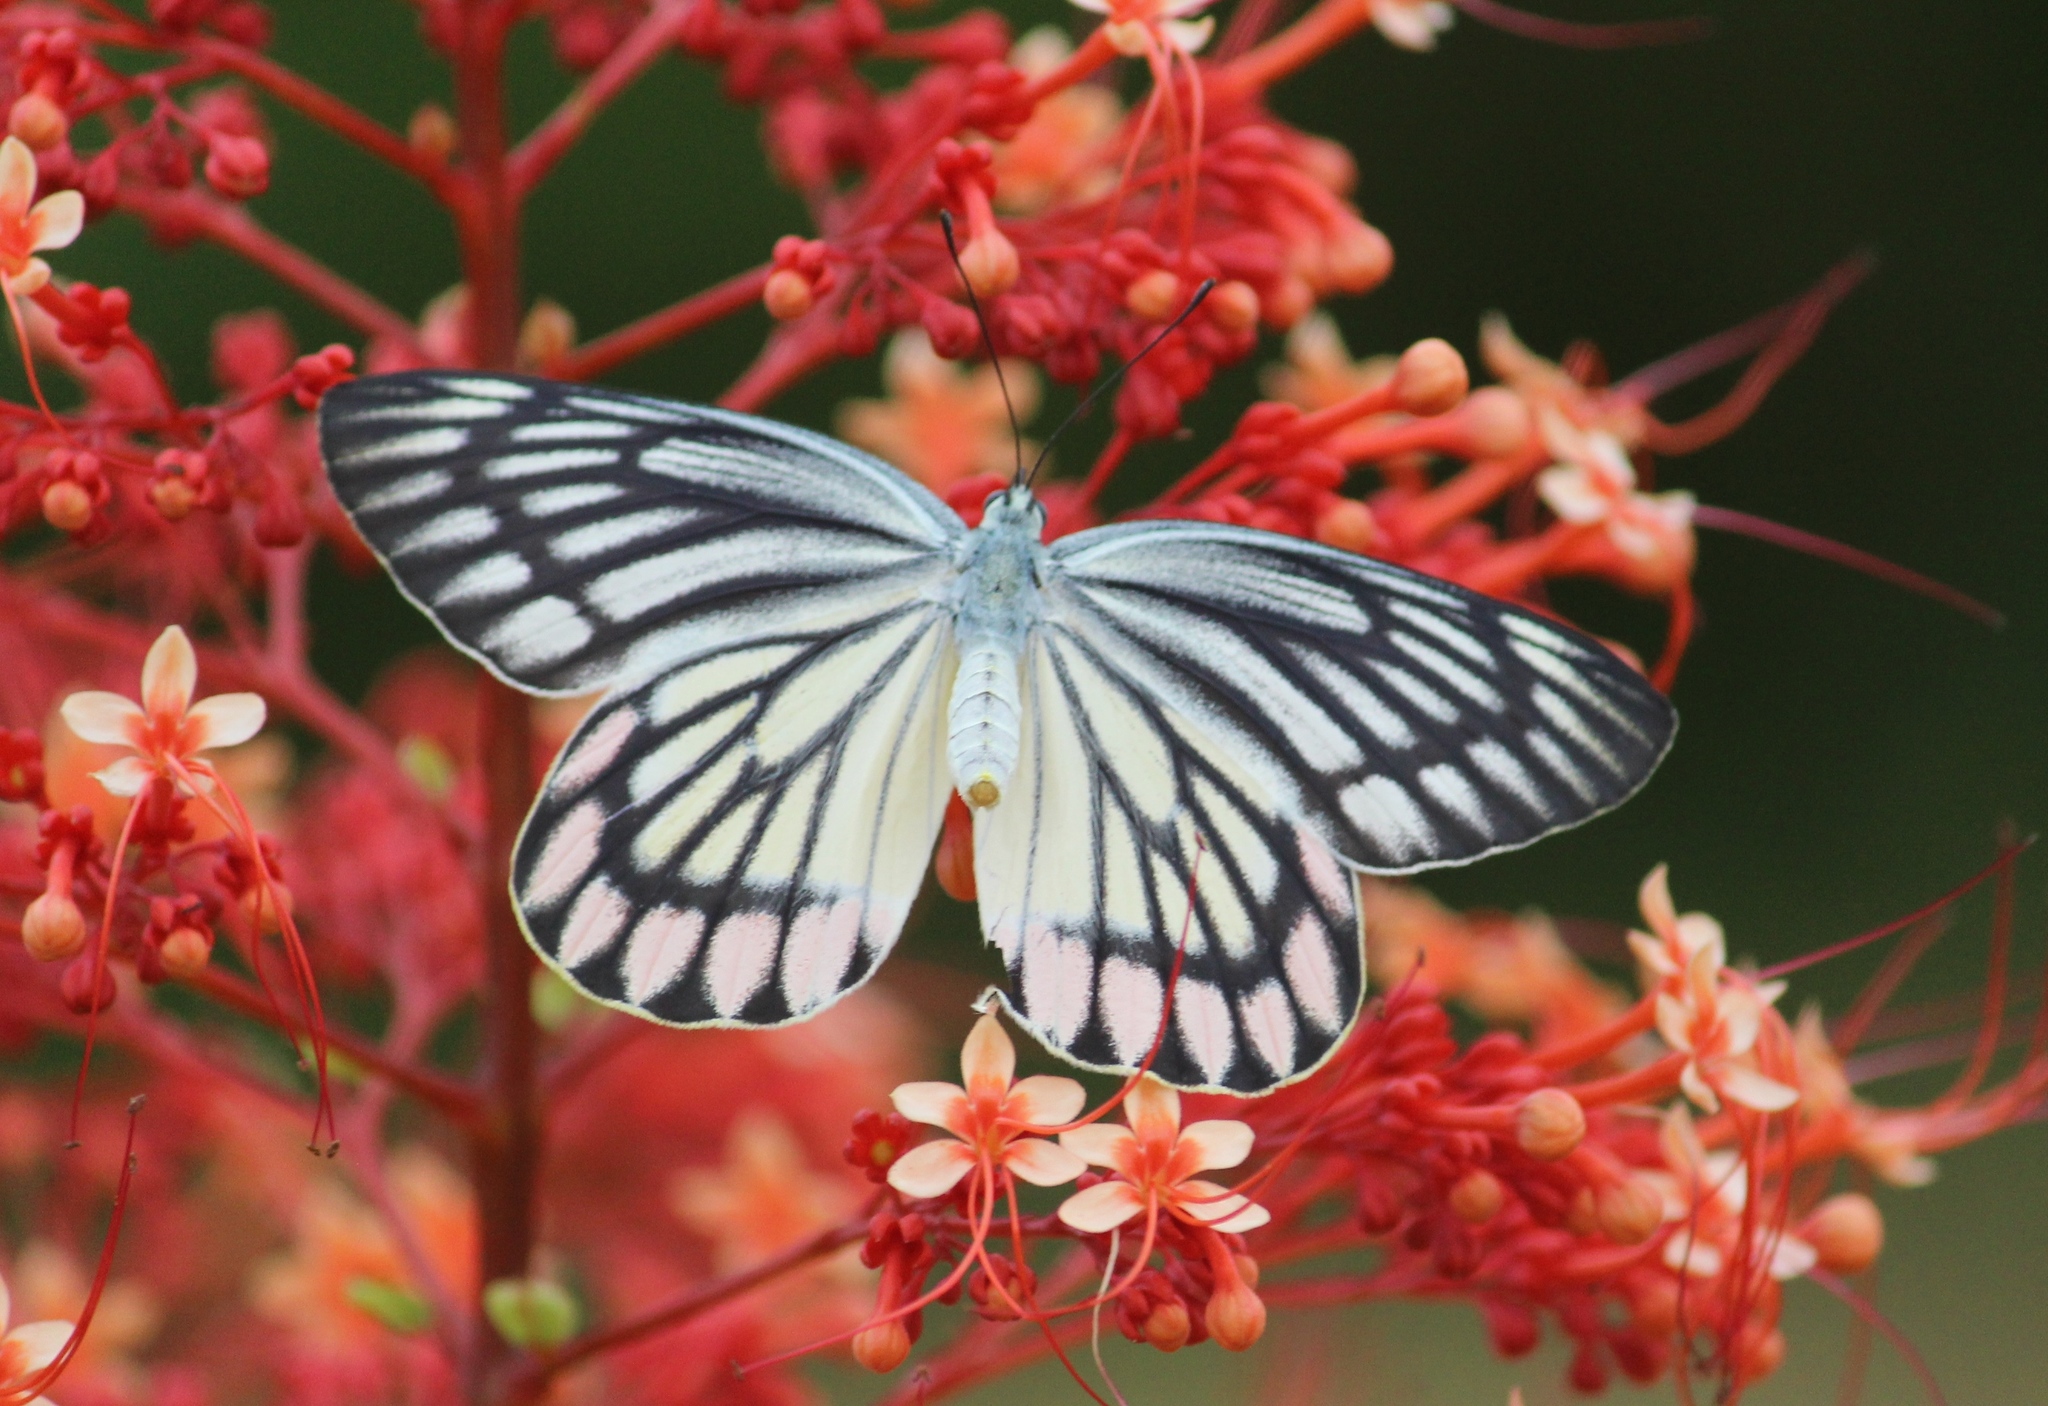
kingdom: Animalia
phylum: Arthropoda
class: Insecta
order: Lepidoptera
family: Pieridae
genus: Delias
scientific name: Delias eucharis
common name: Common jezebel
